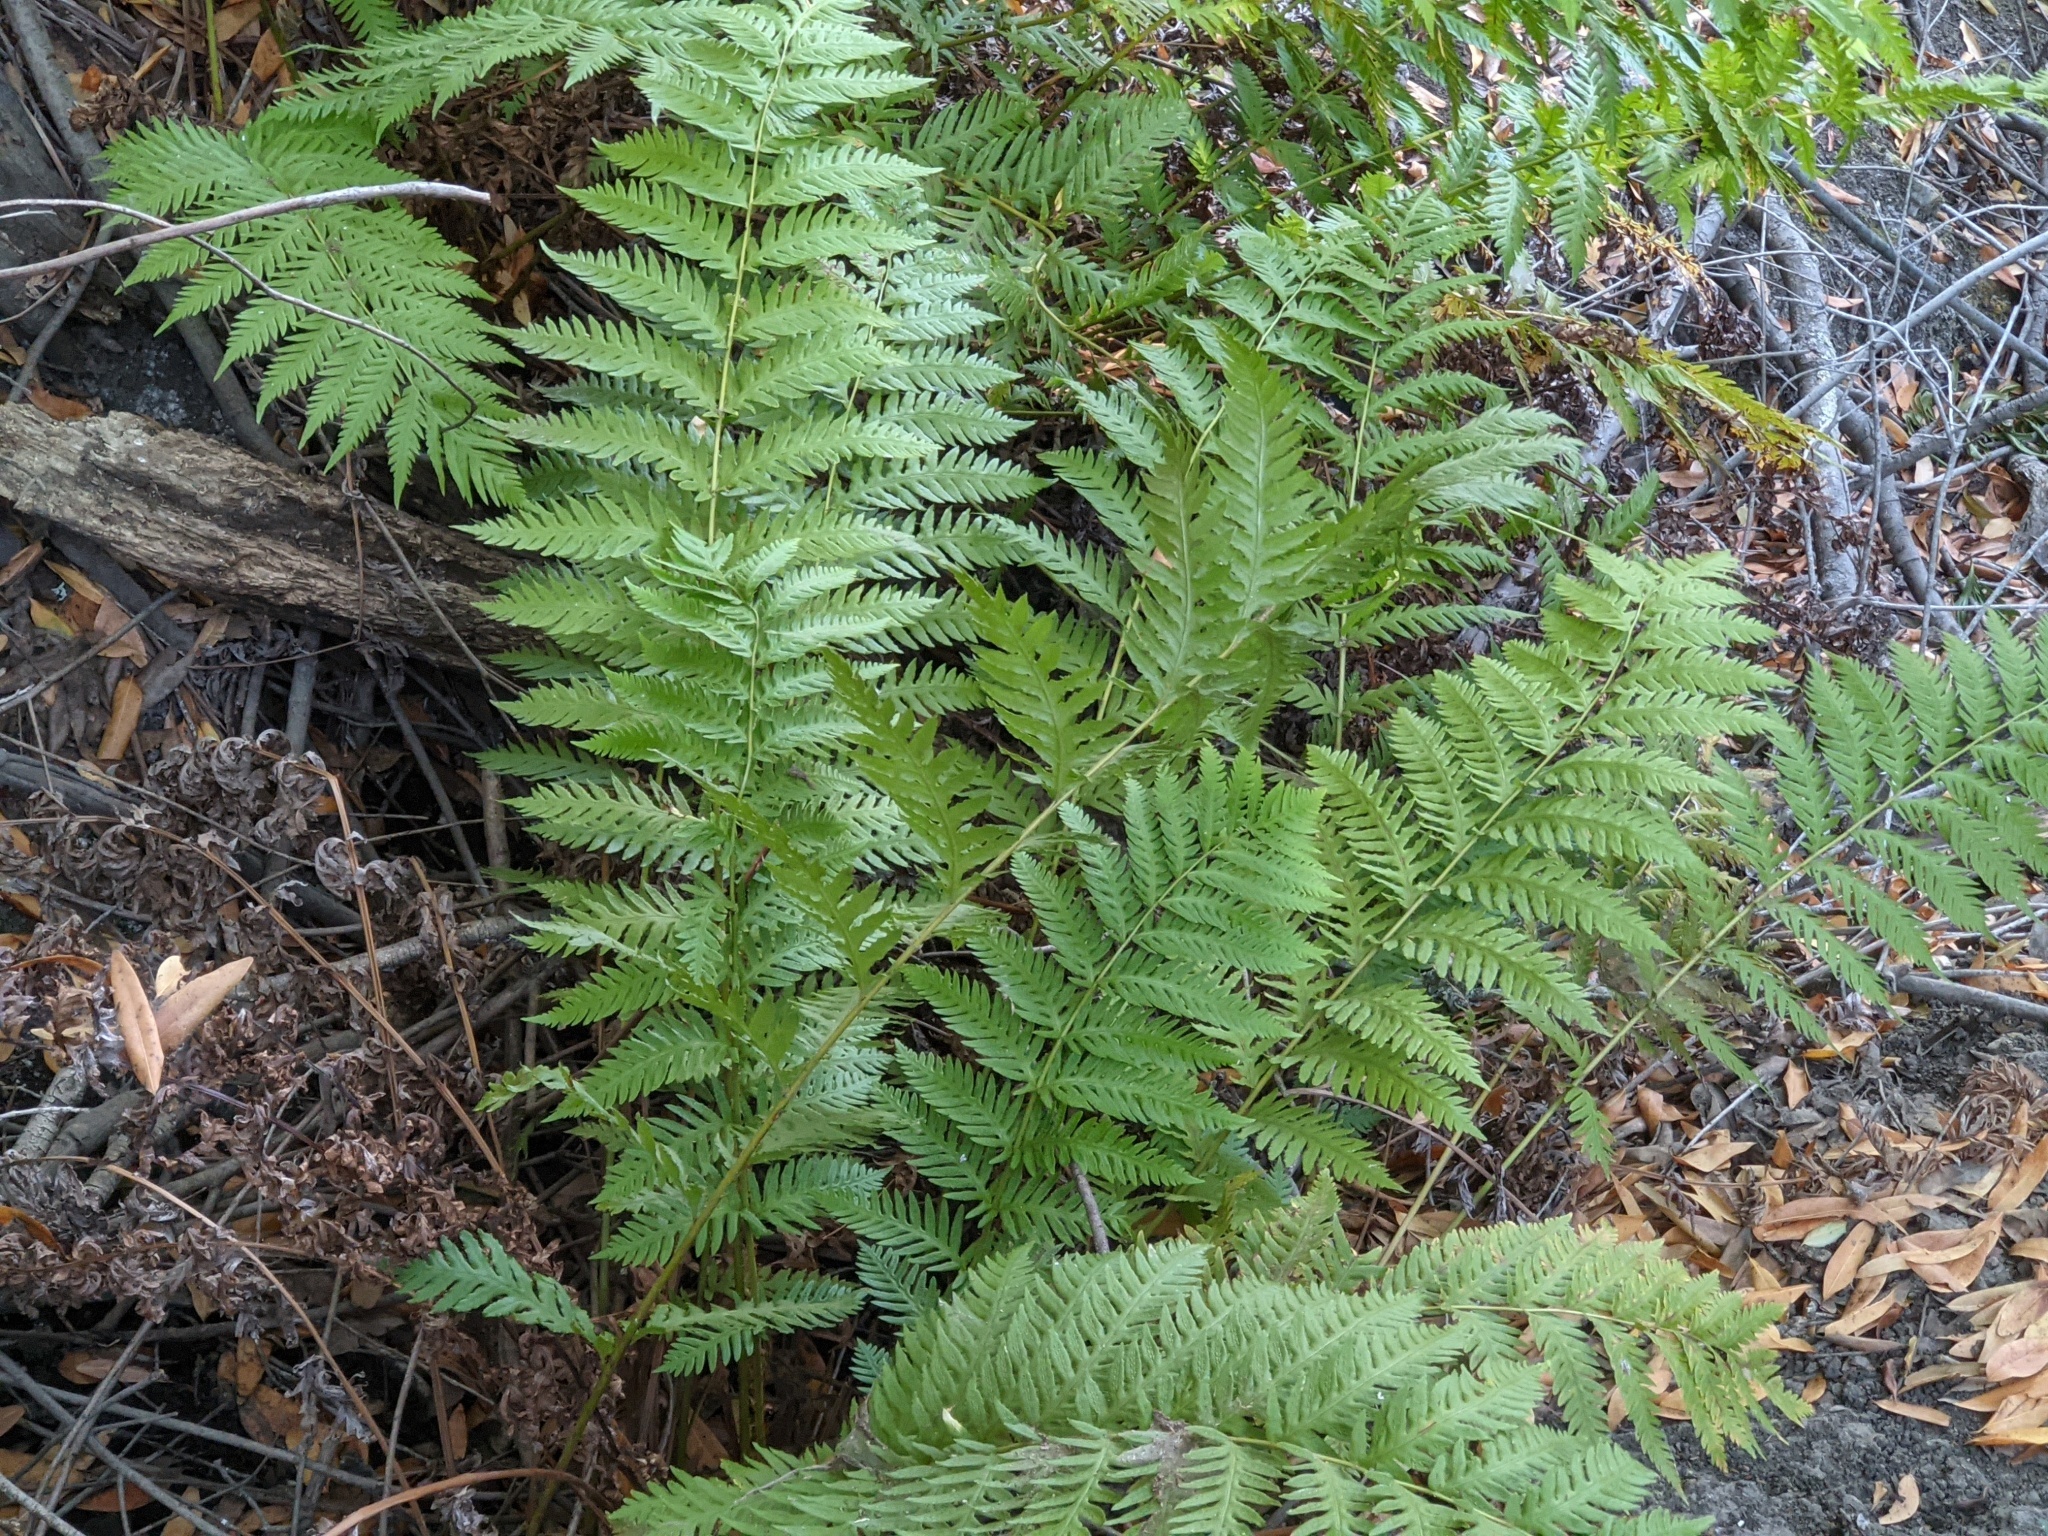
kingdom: Plantae
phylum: Tracheophyta
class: Polypodiopsida
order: Polypodiales
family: Blechnaceae
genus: Woodwardia
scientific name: Woodwardia fimbriata
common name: Giant chain fern
